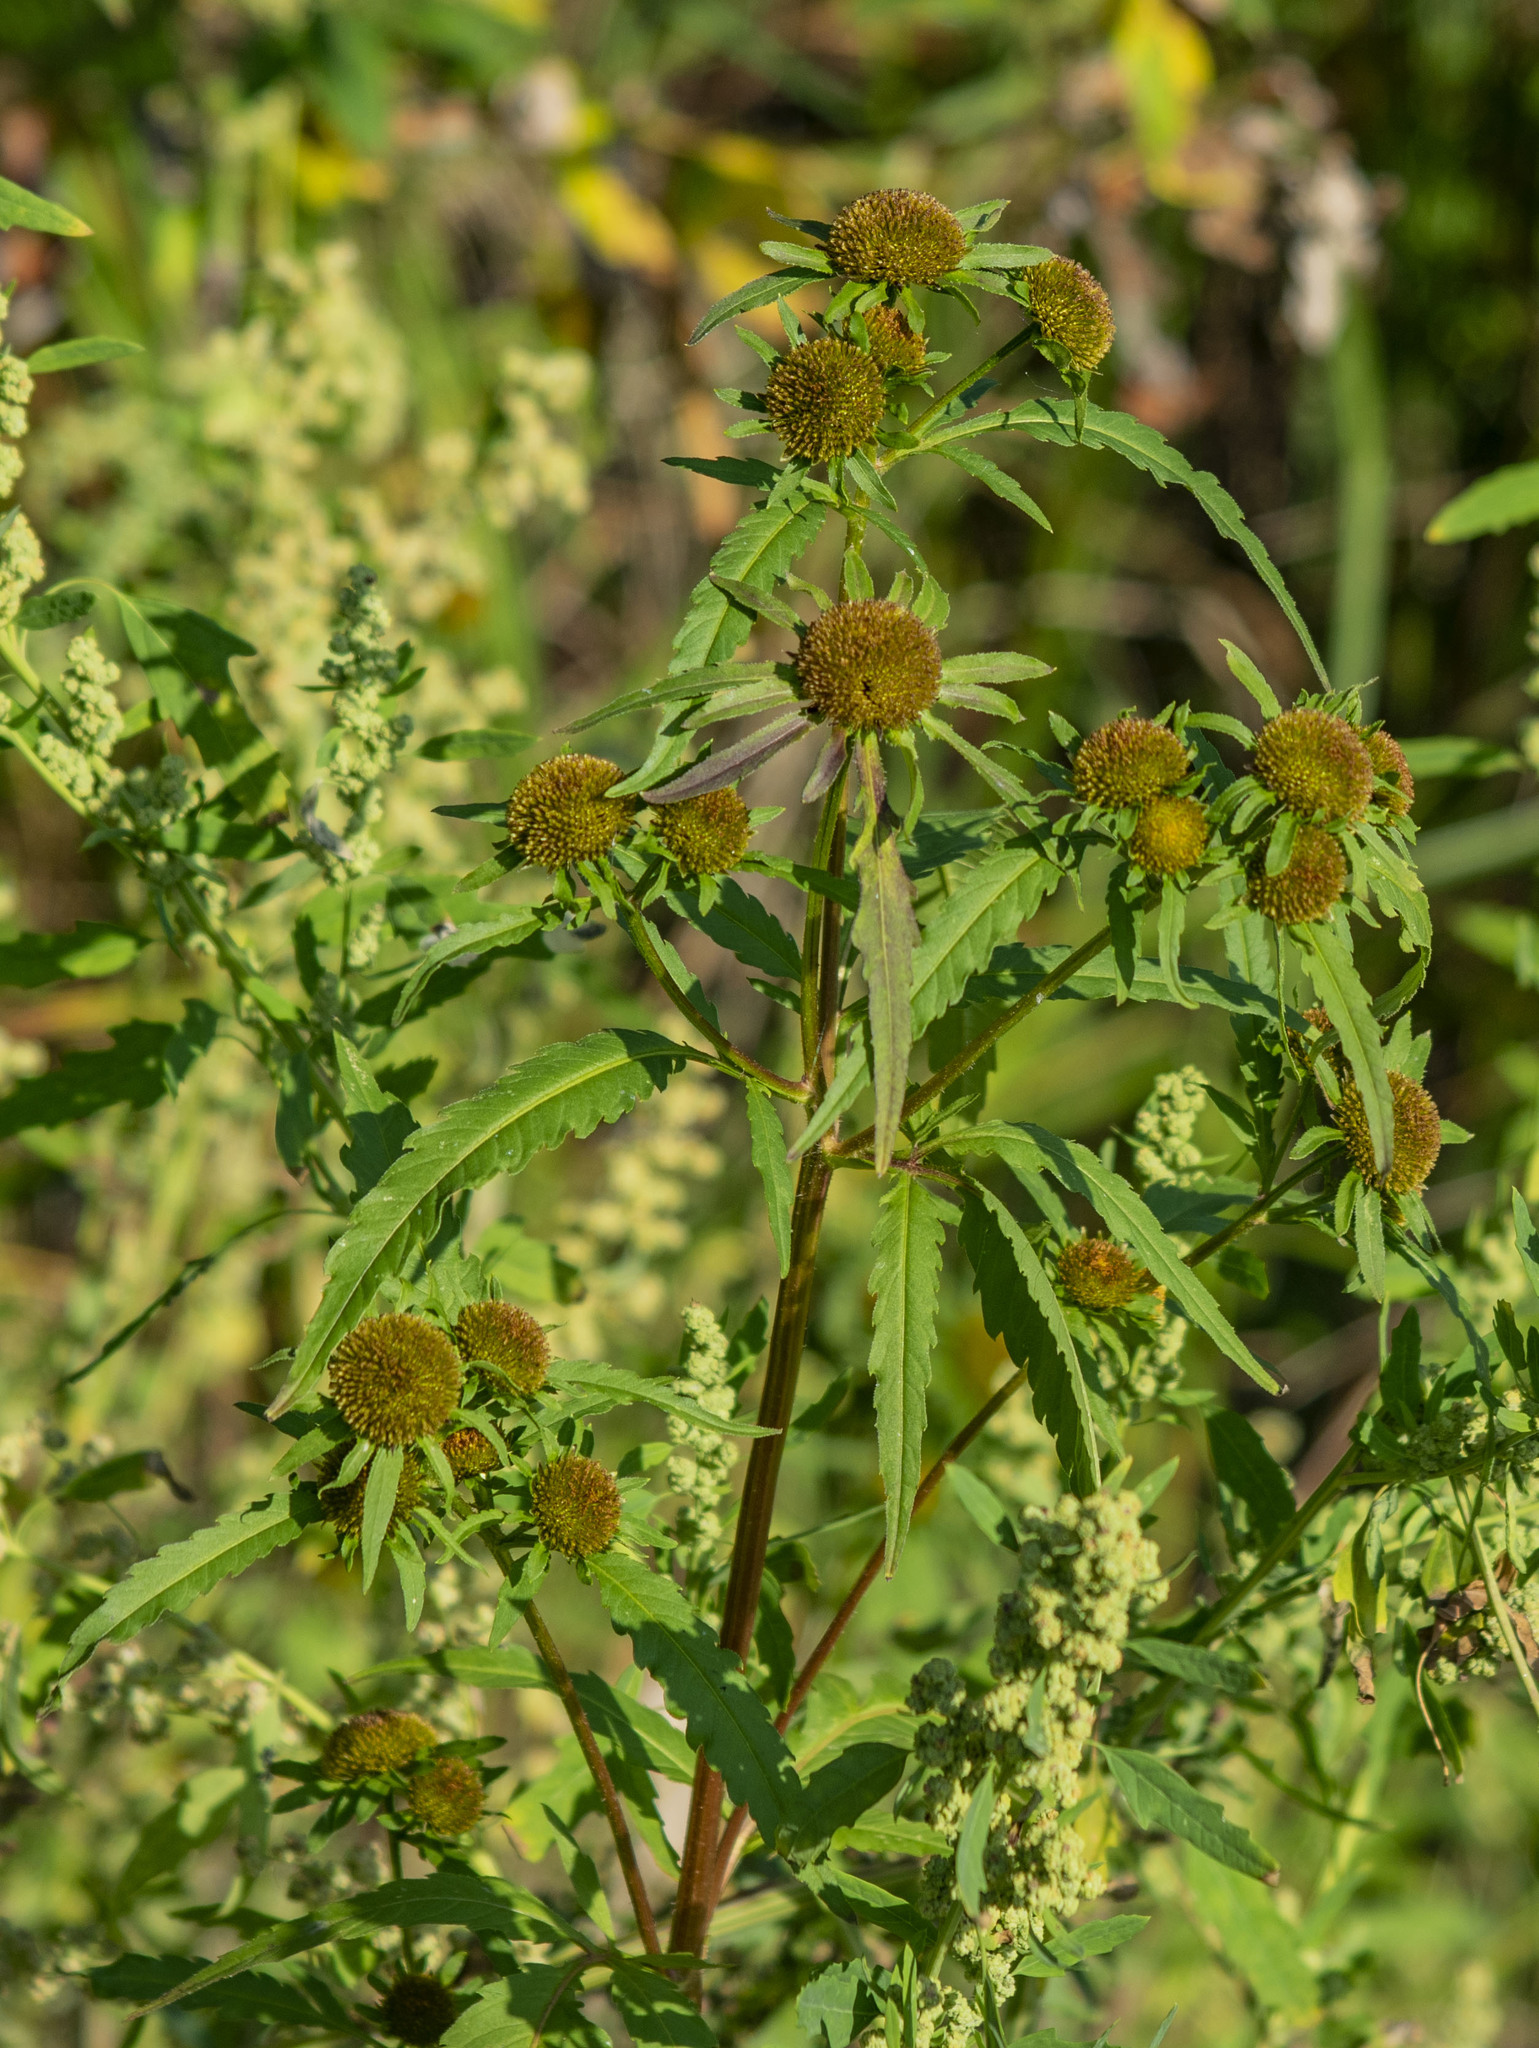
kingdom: Plantae
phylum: Tracheophyta
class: Magnoliopsida
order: Asterales
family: Asteraceae
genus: Bidens
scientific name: Bidens radiata
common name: Radiating bur-marigold
